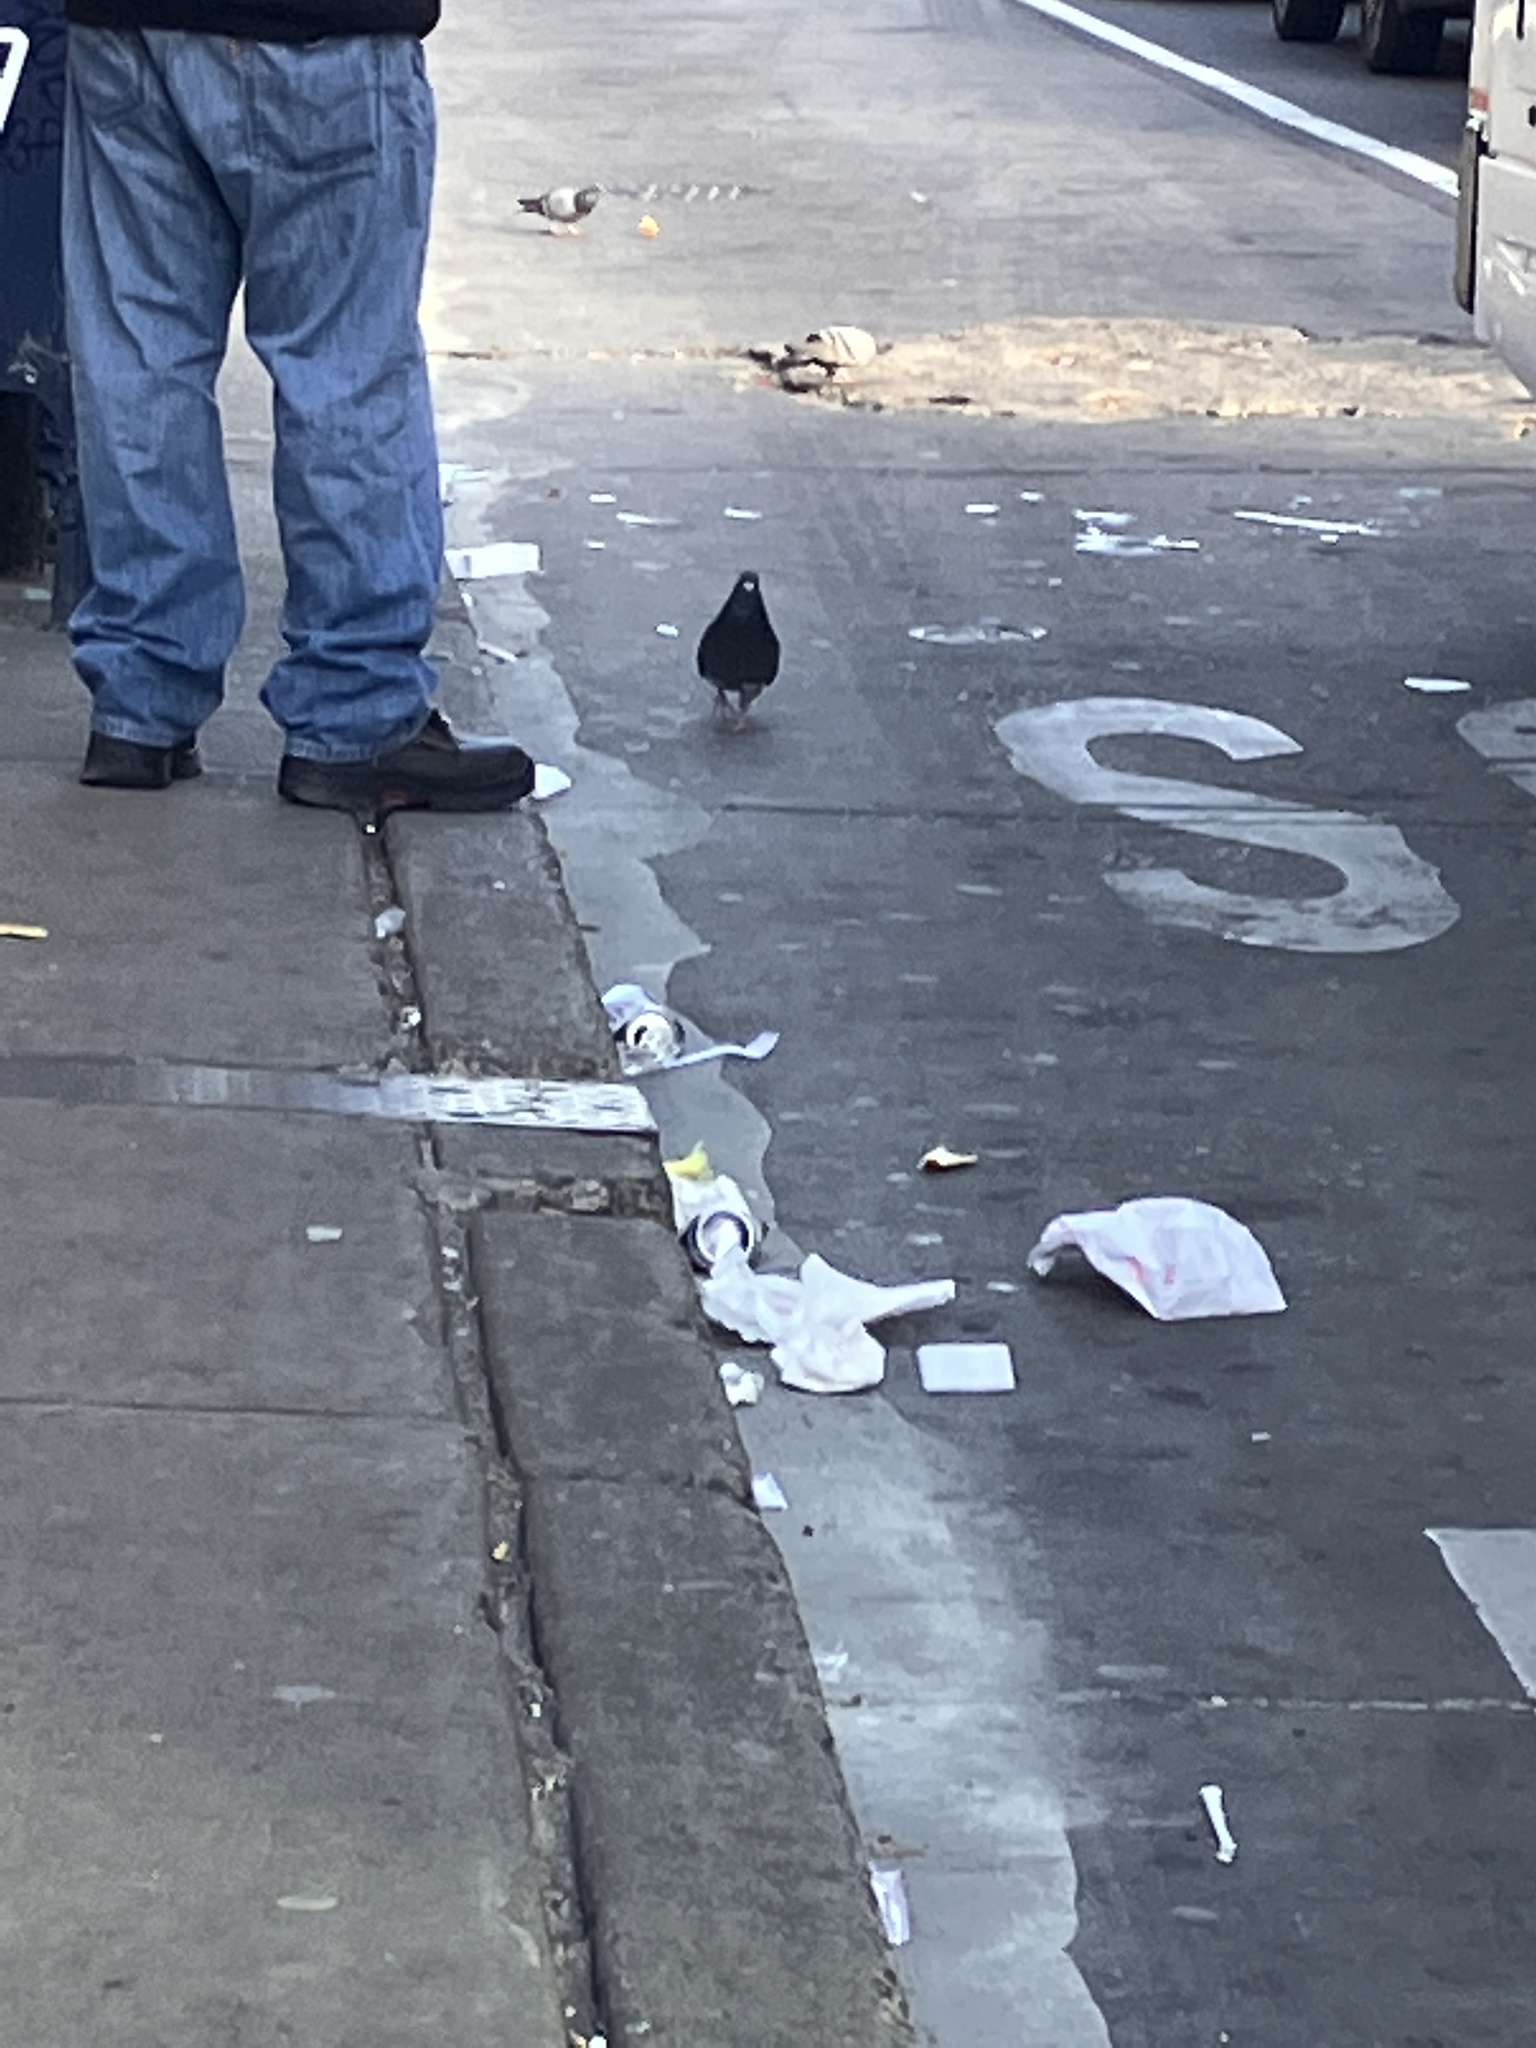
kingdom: Animalia
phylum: Chordata
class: Aves
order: Columbiformes
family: Columbidae
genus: Columba
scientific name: Columba livia
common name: Rock pigeon
